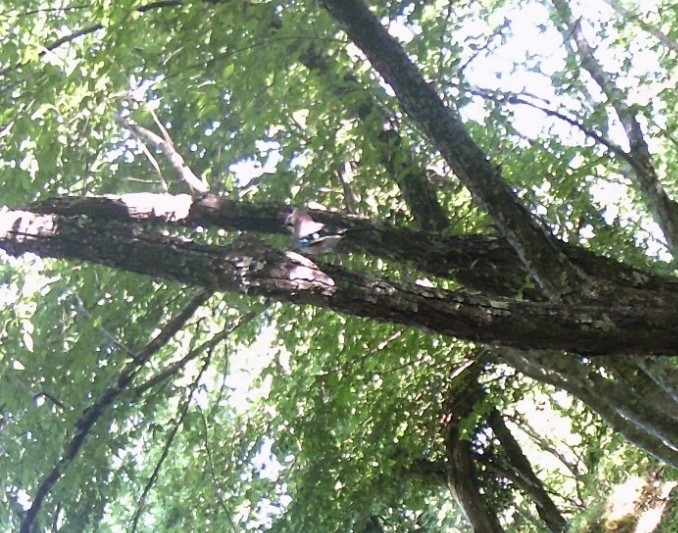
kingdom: Animalia
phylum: Chordata
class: Aves
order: Passeriformes
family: Corvidae
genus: Garrulus
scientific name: Garrulus glandarius
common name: Eurasian jay
